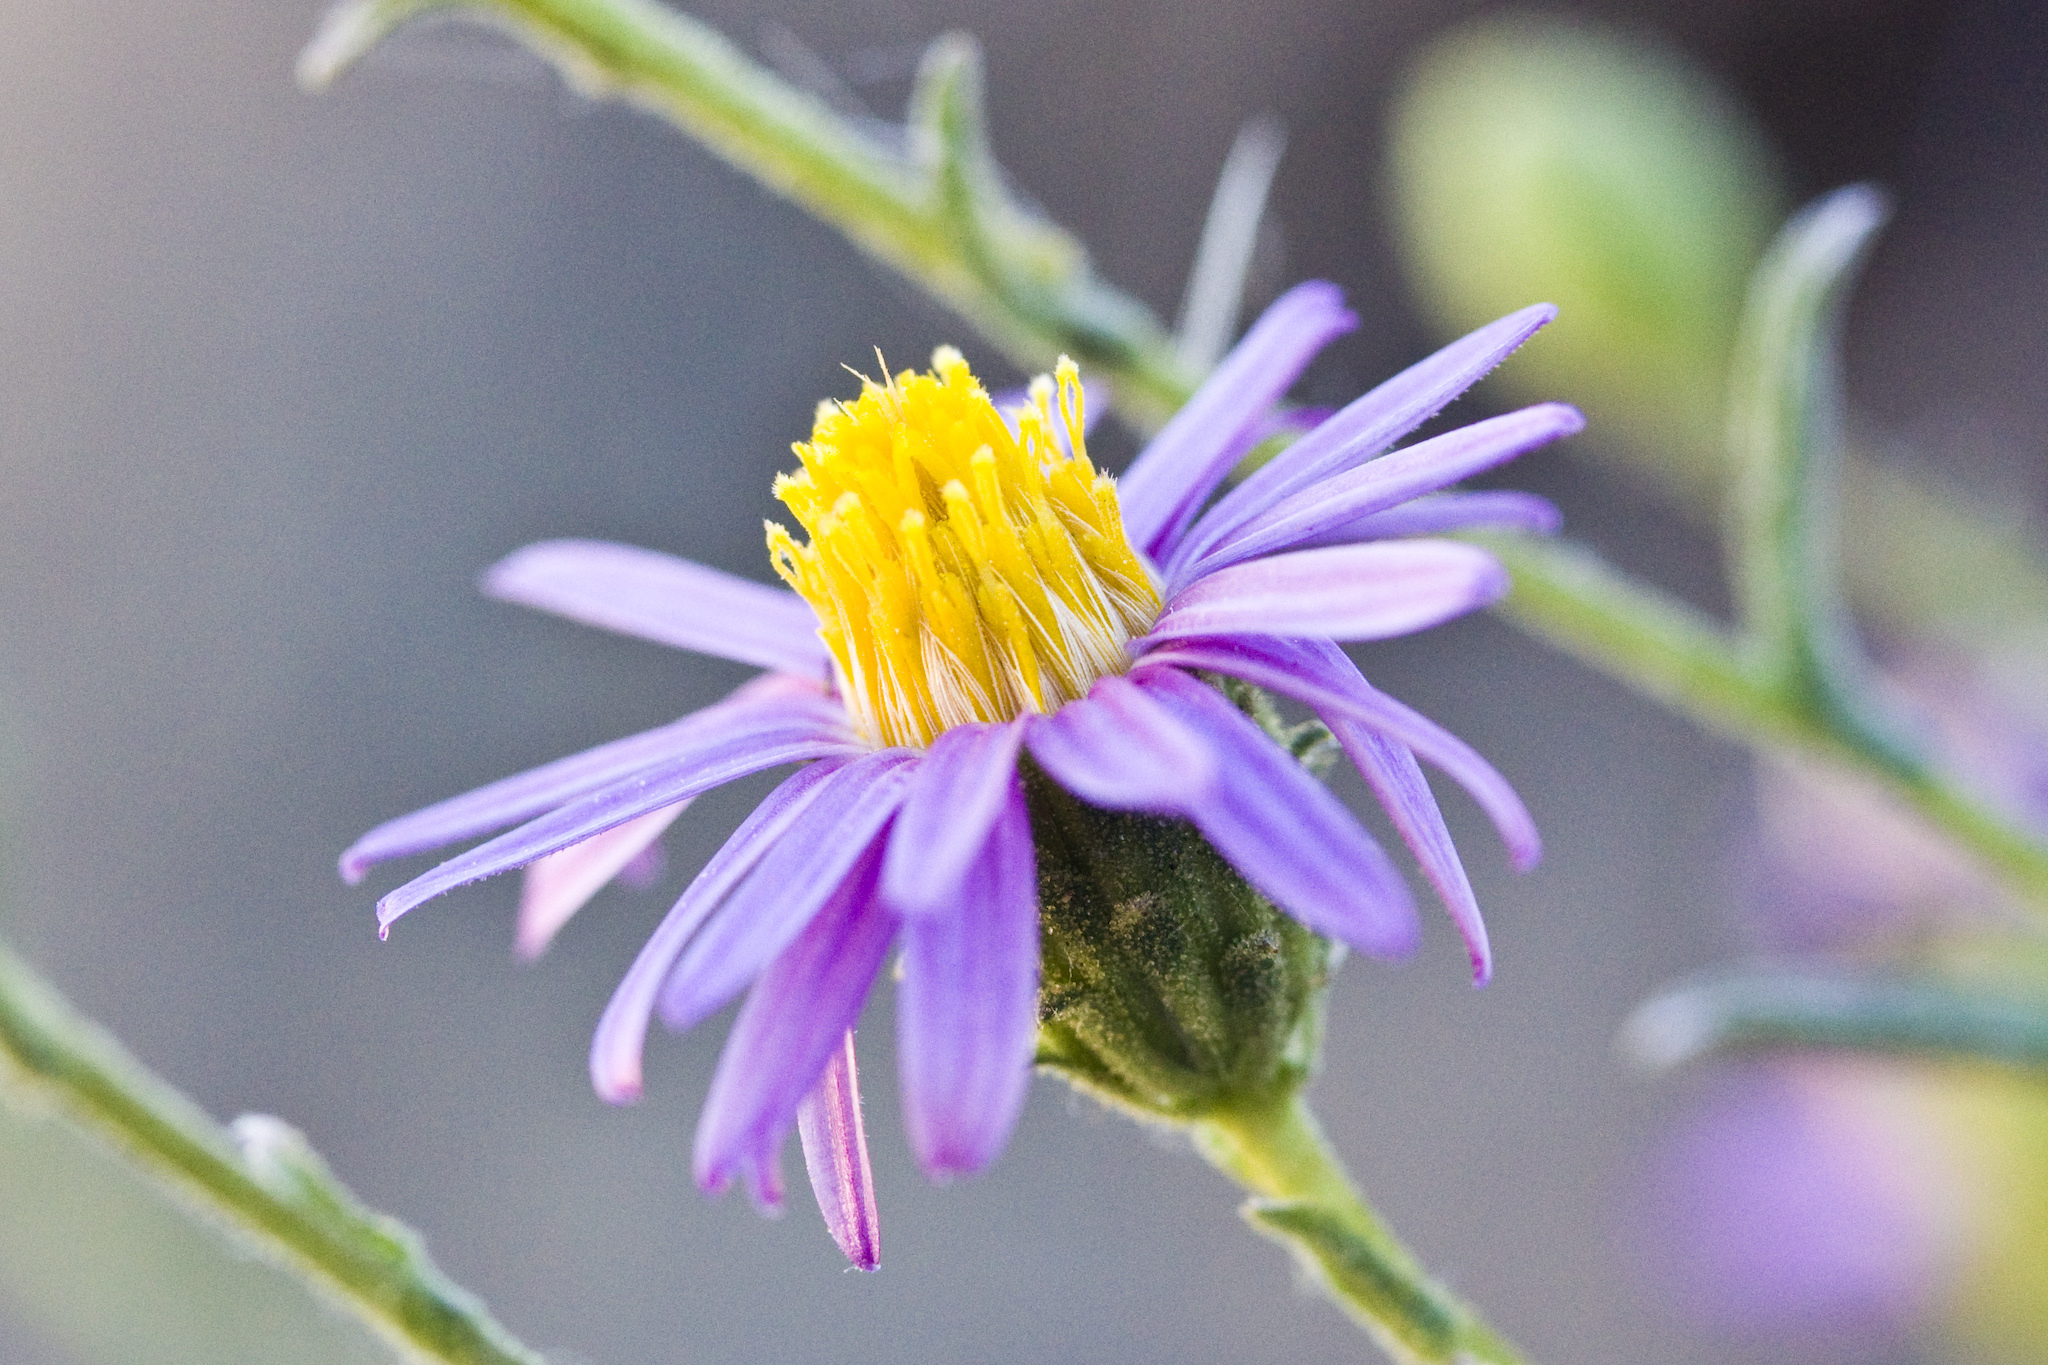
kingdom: Plantae
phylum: Tracheophyta
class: Magnoliopsida
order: Asterales
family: Asteraceae
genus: Corethrogyne
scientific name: Corethrogyne filaginifolia
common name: Sand-aster
